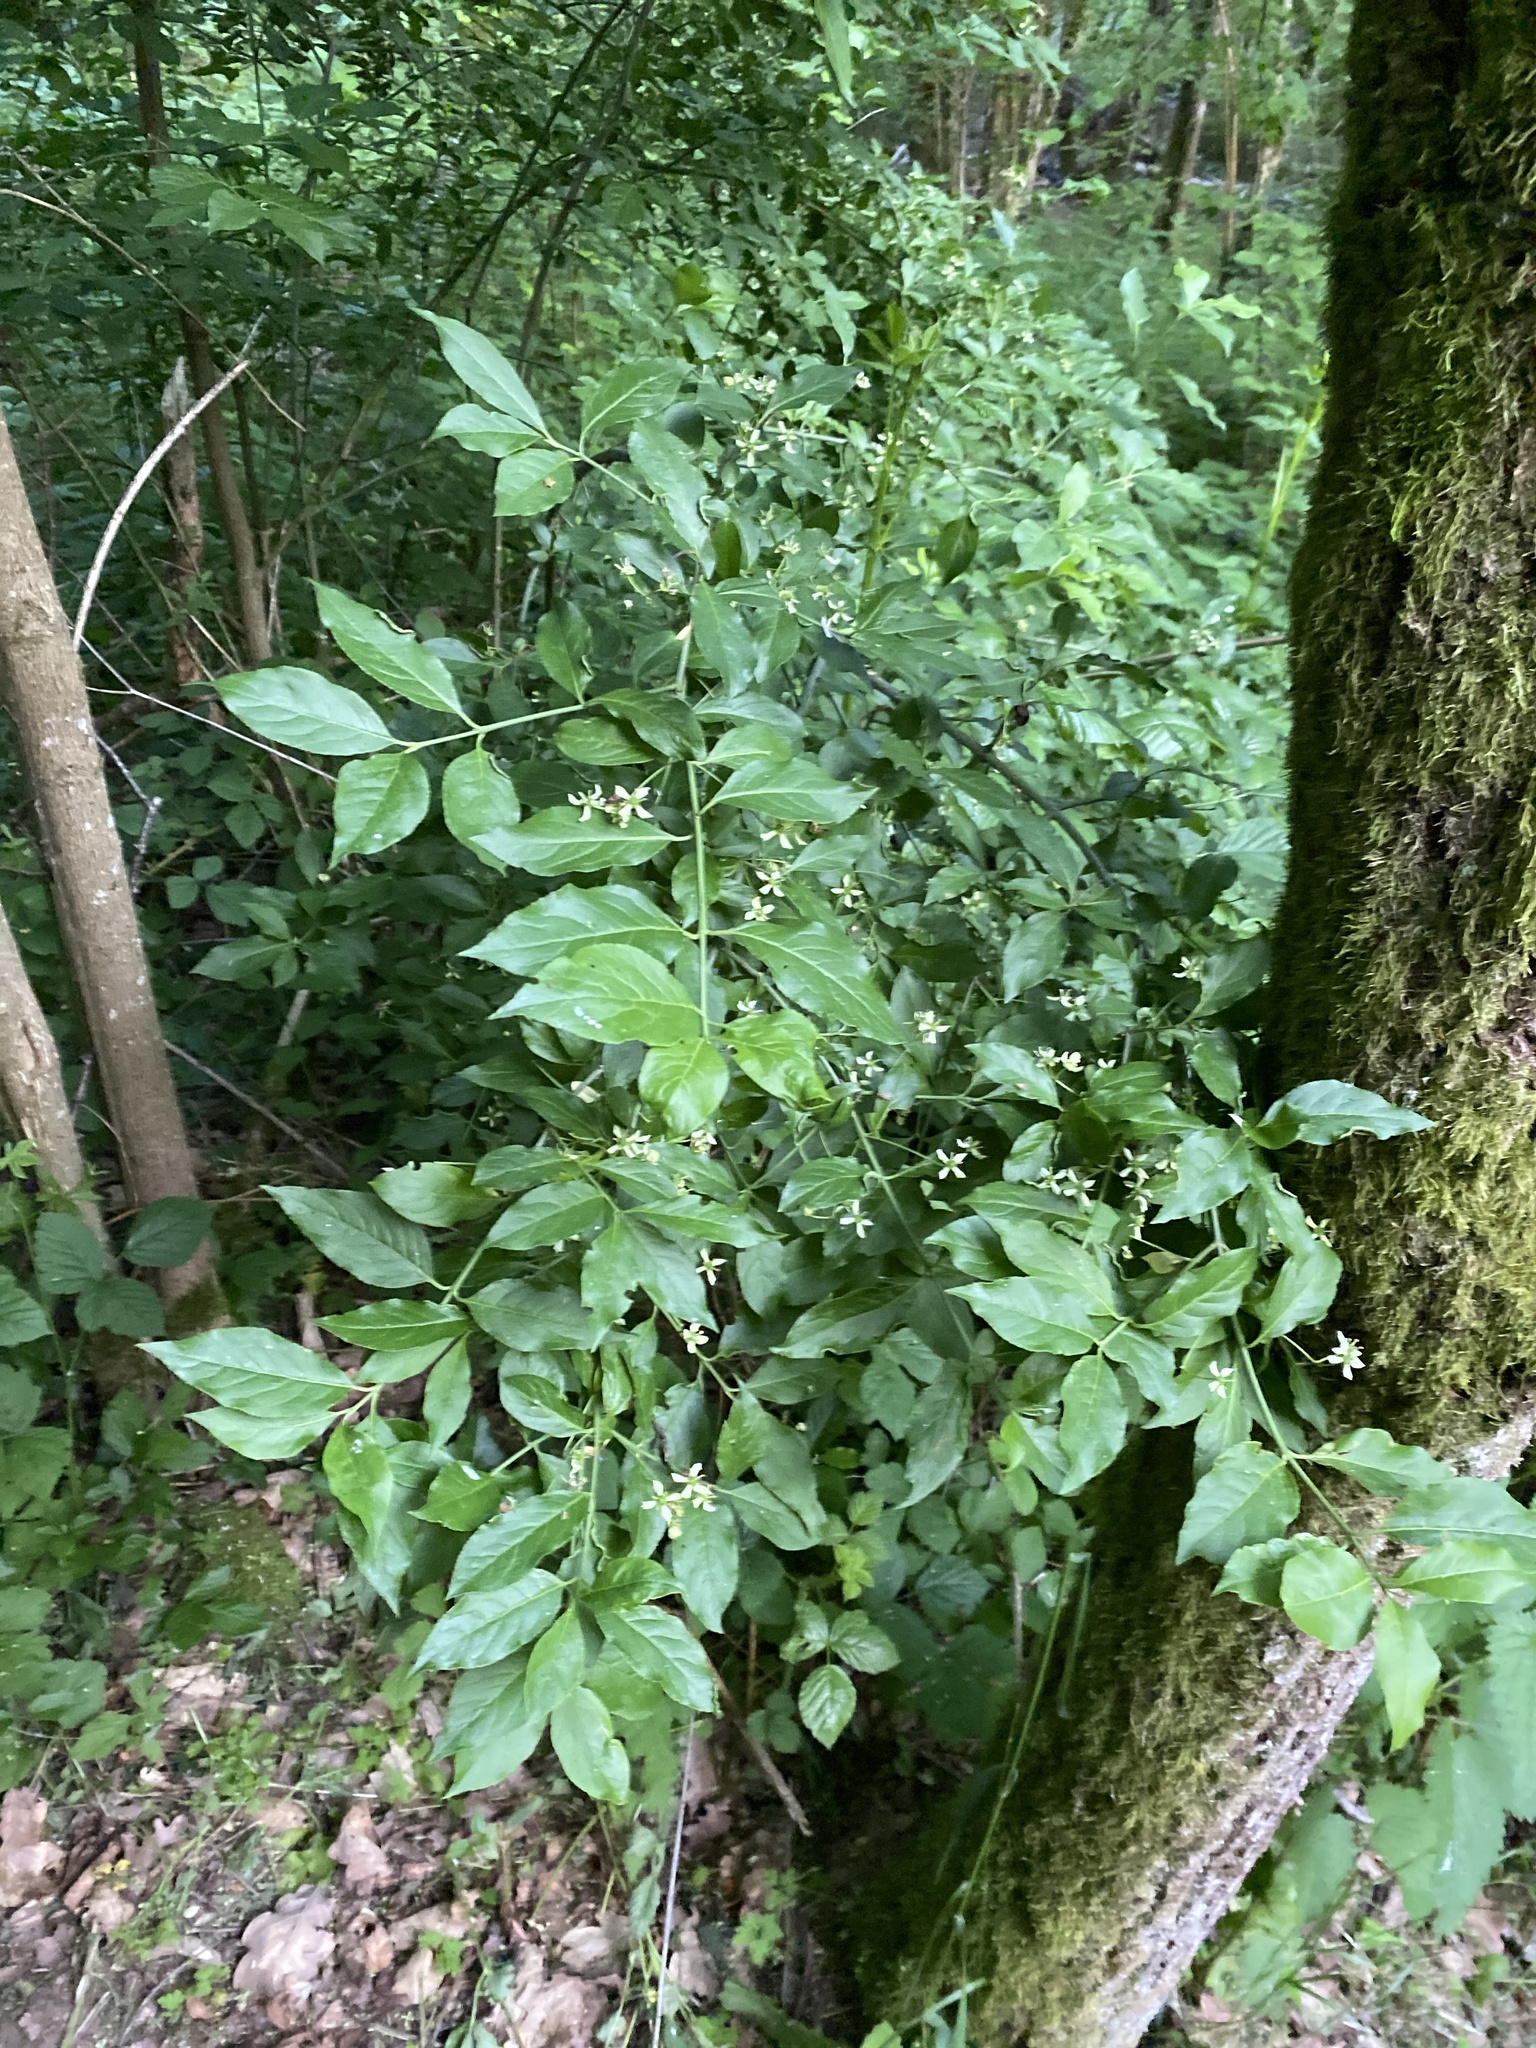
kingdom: Plantae
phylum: Tracheophyta
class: Magnoliopsida
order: Celastrales
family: Celastraceae
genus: Euonymus
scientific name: Euonymus europaeus
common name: Spindle
